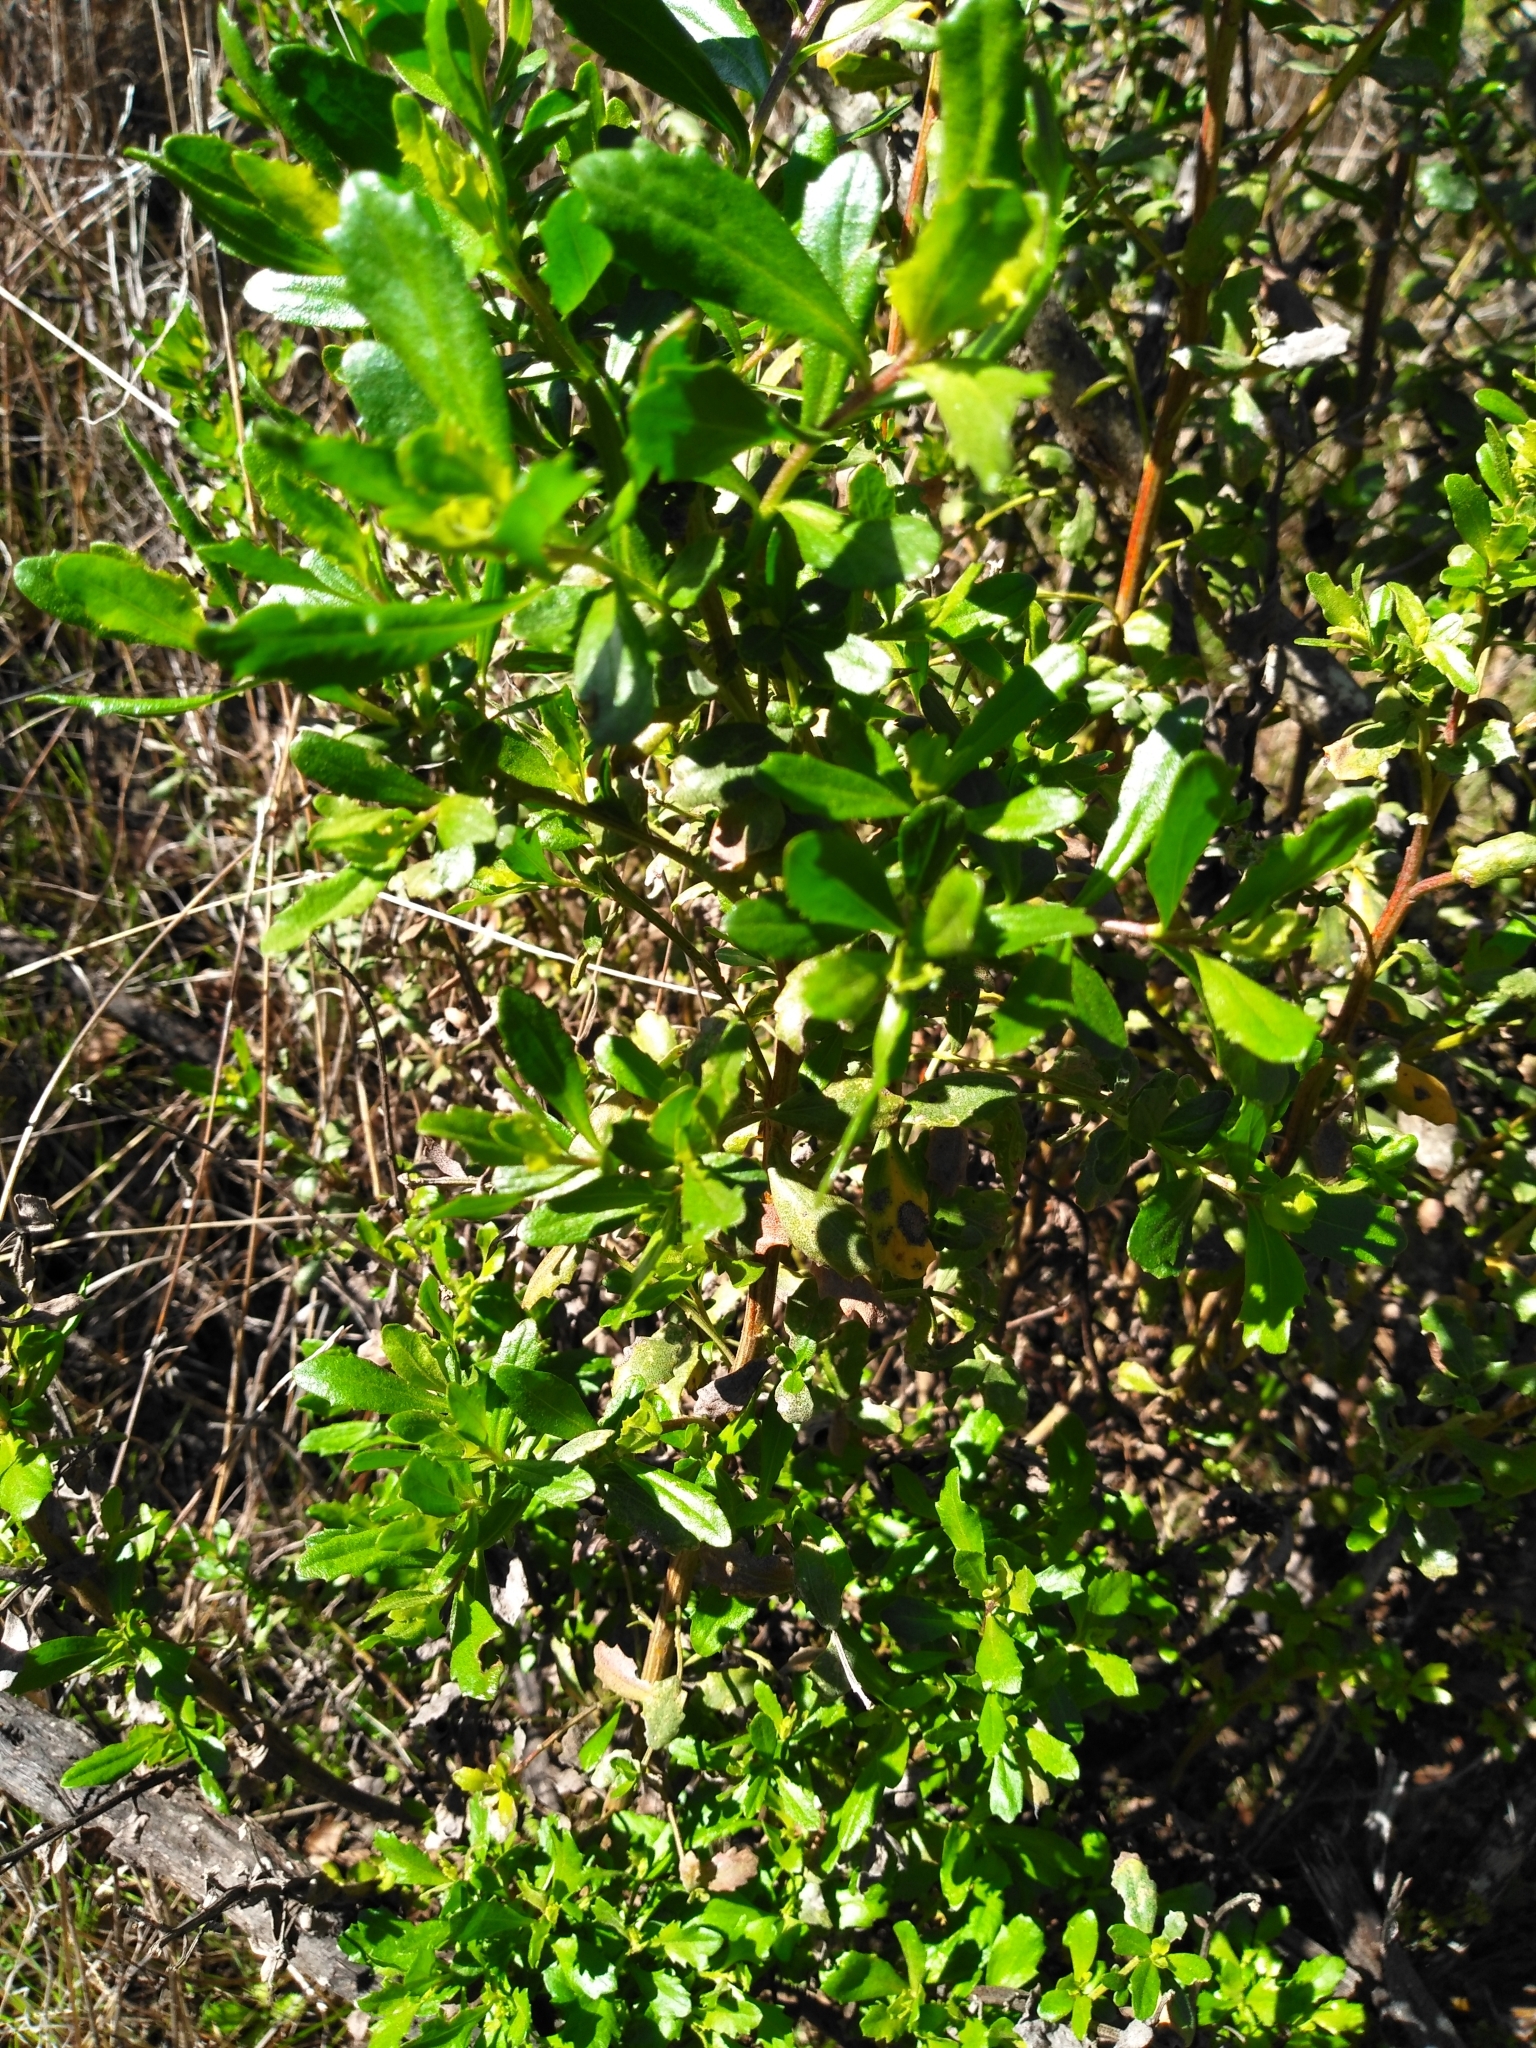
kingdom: Plantae
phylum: Tracheophyta
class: Magnoliopsida
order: Asterales
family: Asteraceae
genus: Baccharis
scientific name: Baccharis pilularis
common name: Coyotebrush
